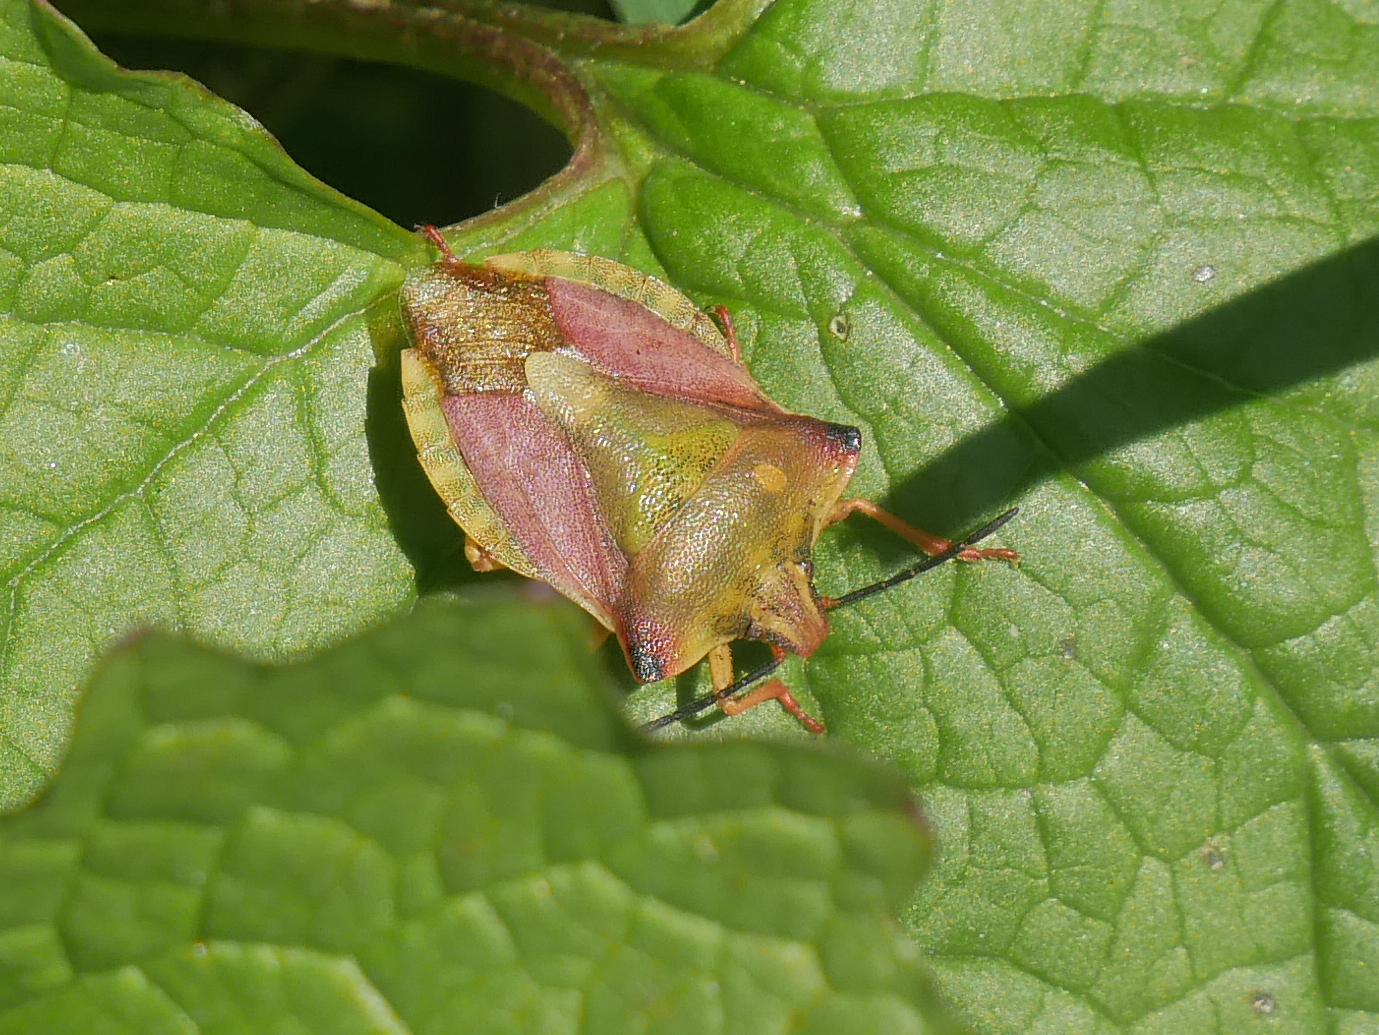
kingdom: Animalia
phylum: Arthropoda
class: Insecta
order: Hemiptera
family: Pentatomidae
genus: Carpocoris
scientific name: Carpocoris fuscispinus
